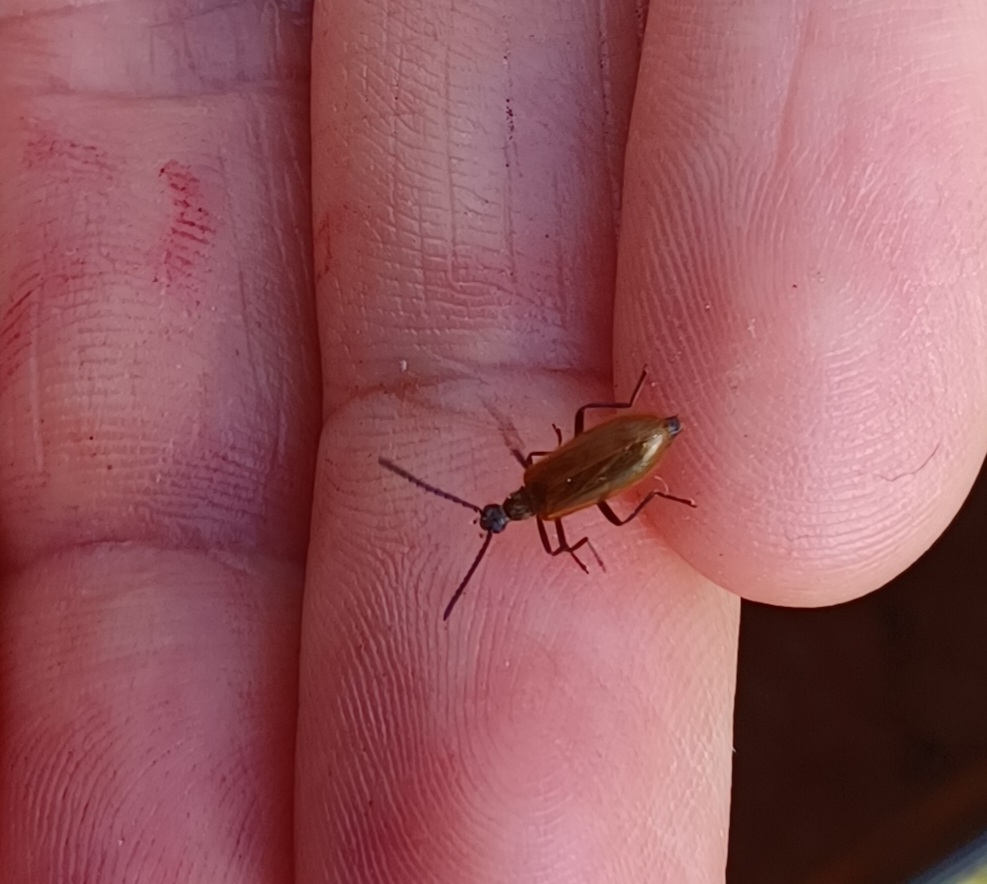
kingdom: Animalia
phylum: Arthropoda
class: Insecta
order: Coleoptera
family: Tenebrionidae
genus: Lagria
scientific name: Lagria hirta
